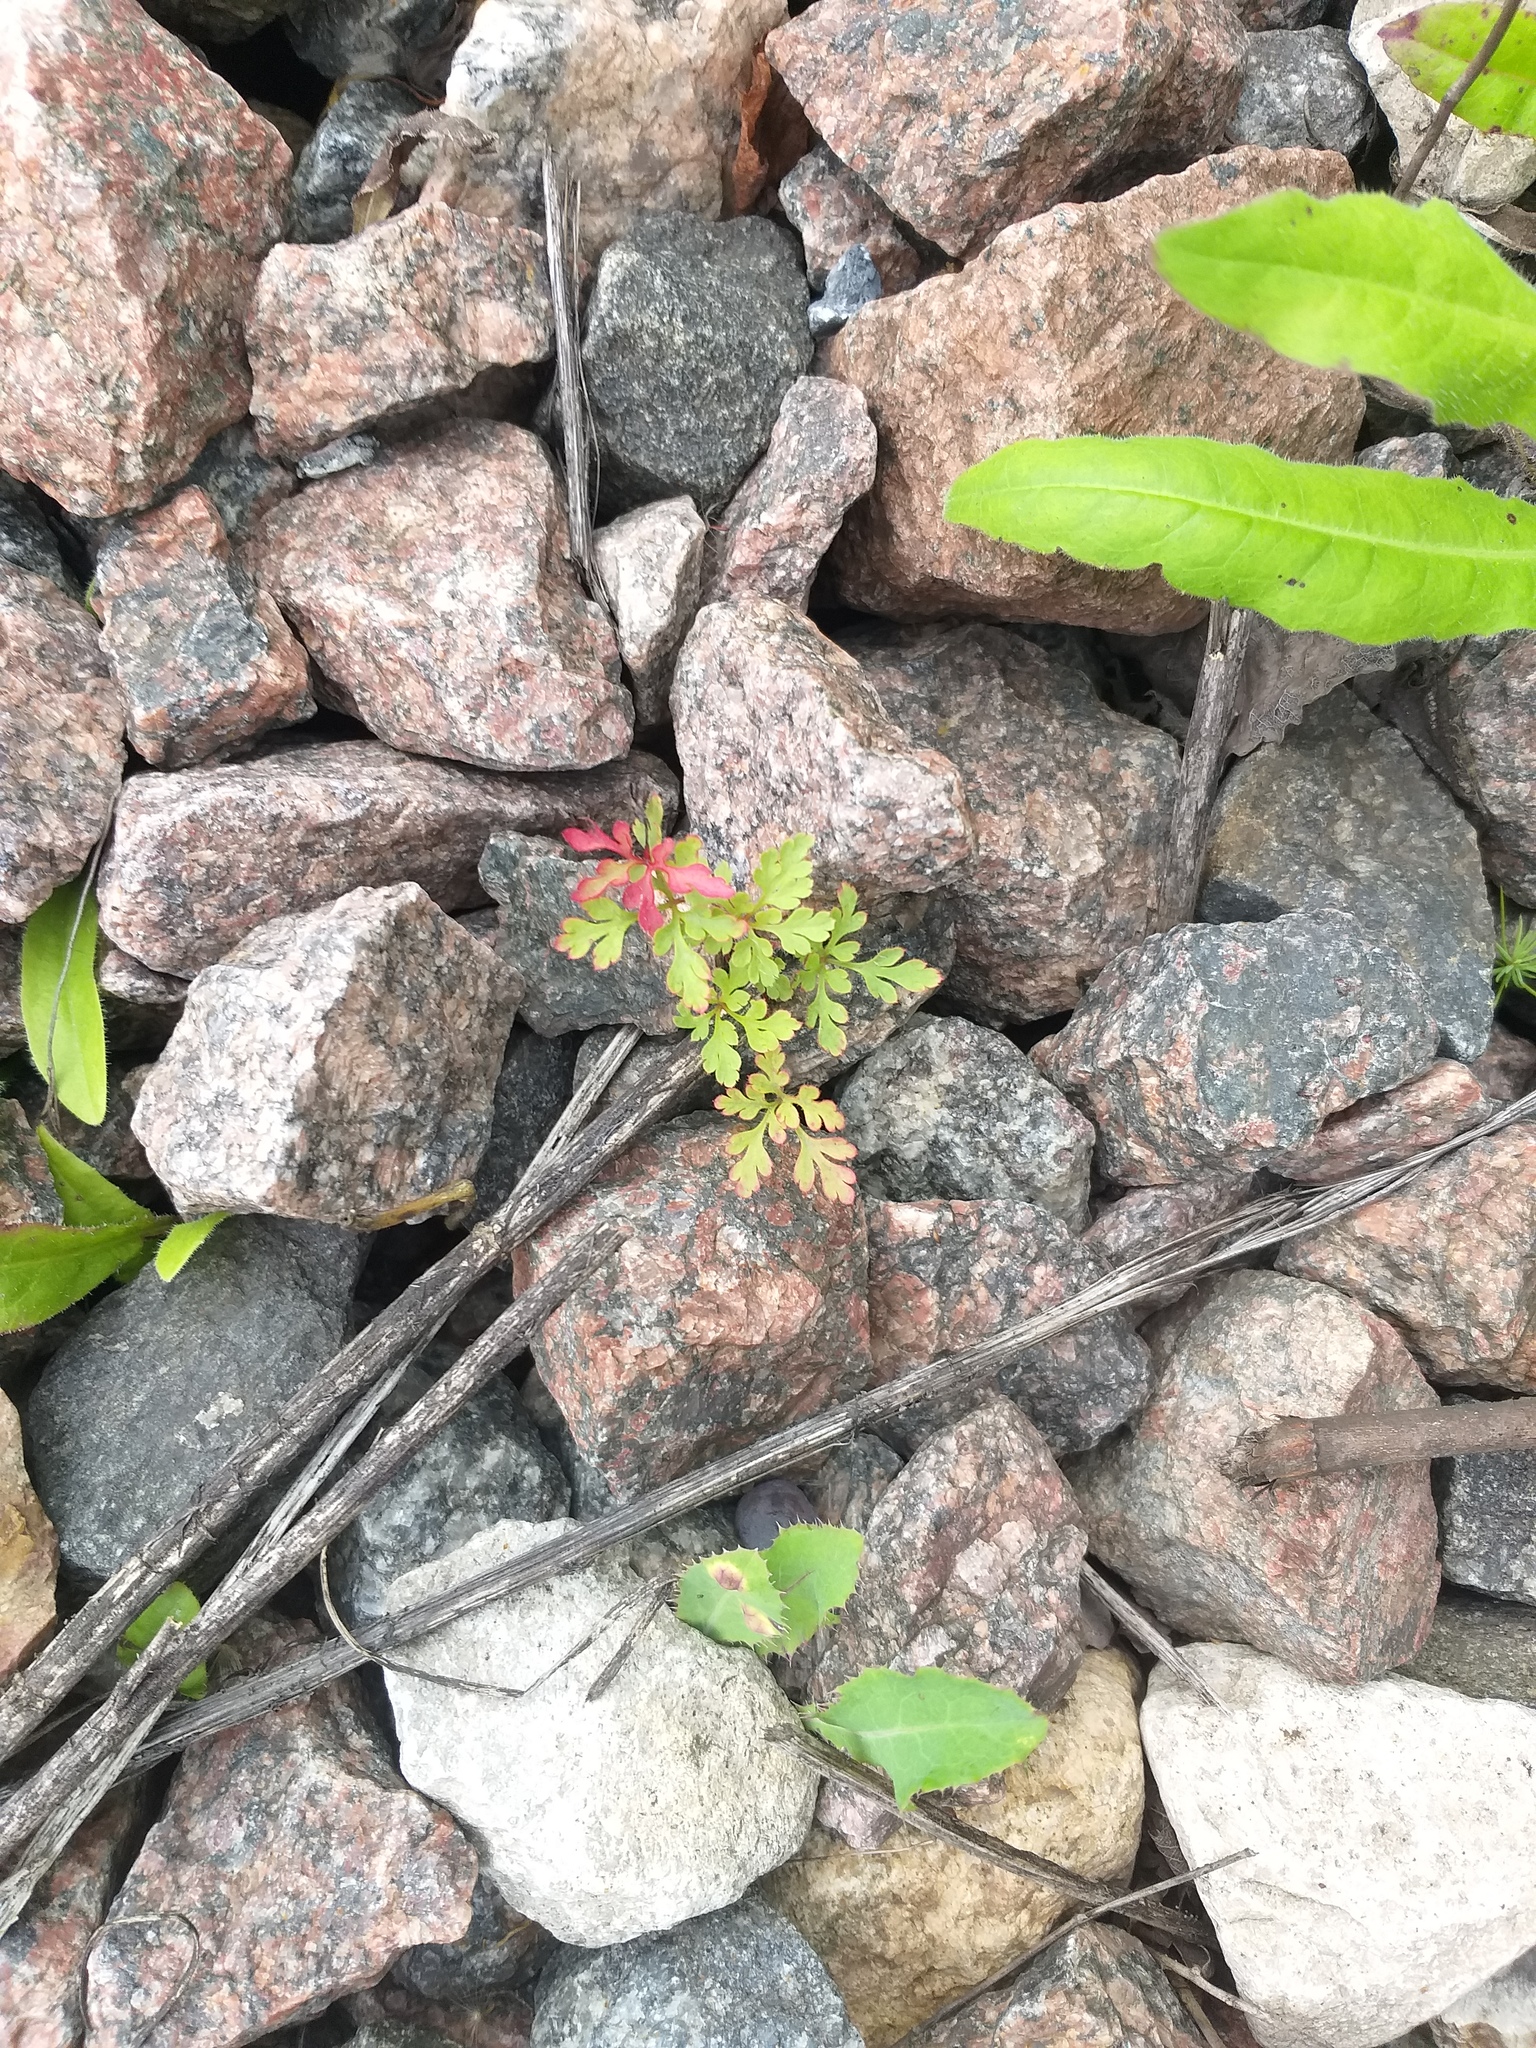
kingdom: Plantae
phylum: Tracheophyta
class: Magnoliopsida
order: Geraniales
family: Geraniaceae
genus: Geranium
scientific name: Geranium robertianum
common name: Herb-robert
